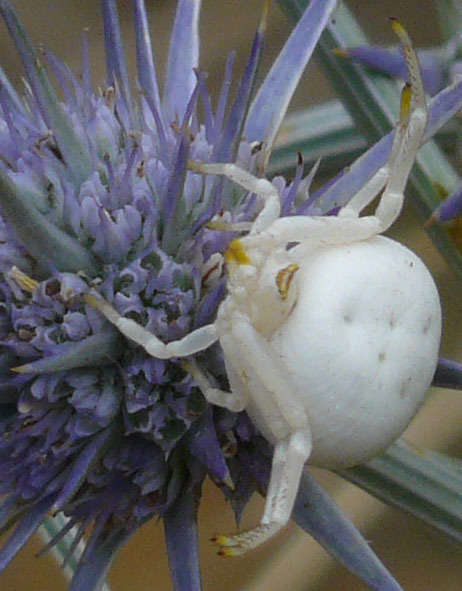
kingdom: Plantae
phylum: Tracheophyta
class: Magnoliopsida
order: Apiales
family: Apiaceae
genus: Eryngium
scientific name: Eryngium ovinum
